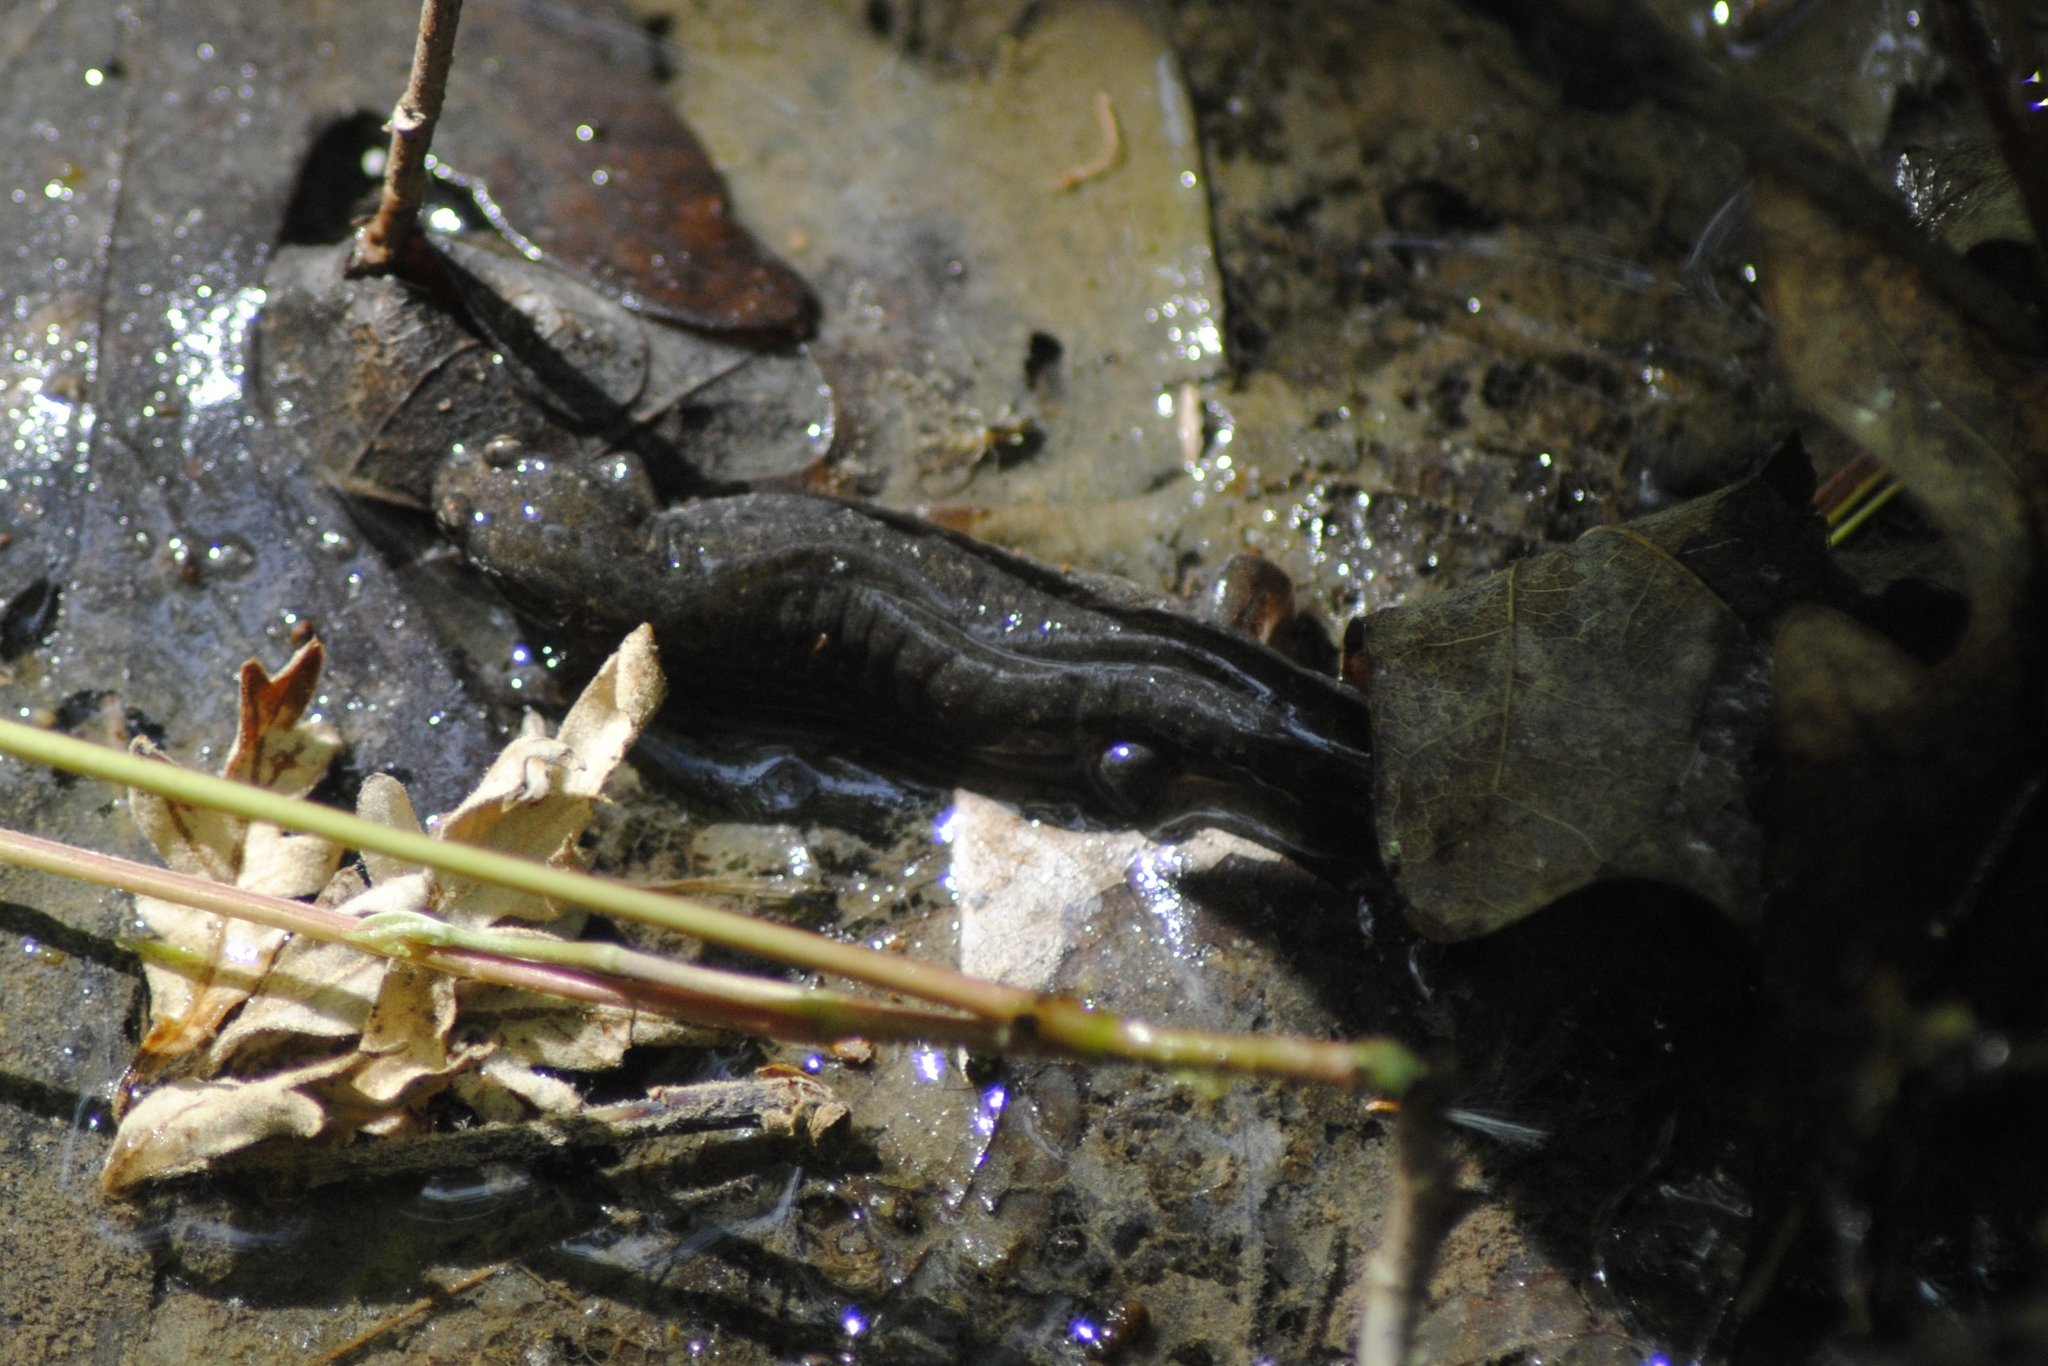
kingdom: Animalia
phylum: Chordata
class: Amphibia
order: Caudata
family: Plethodontidae
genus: Desmognathus
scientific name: Desmognathus fuscus
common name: Northern dusky salamander
